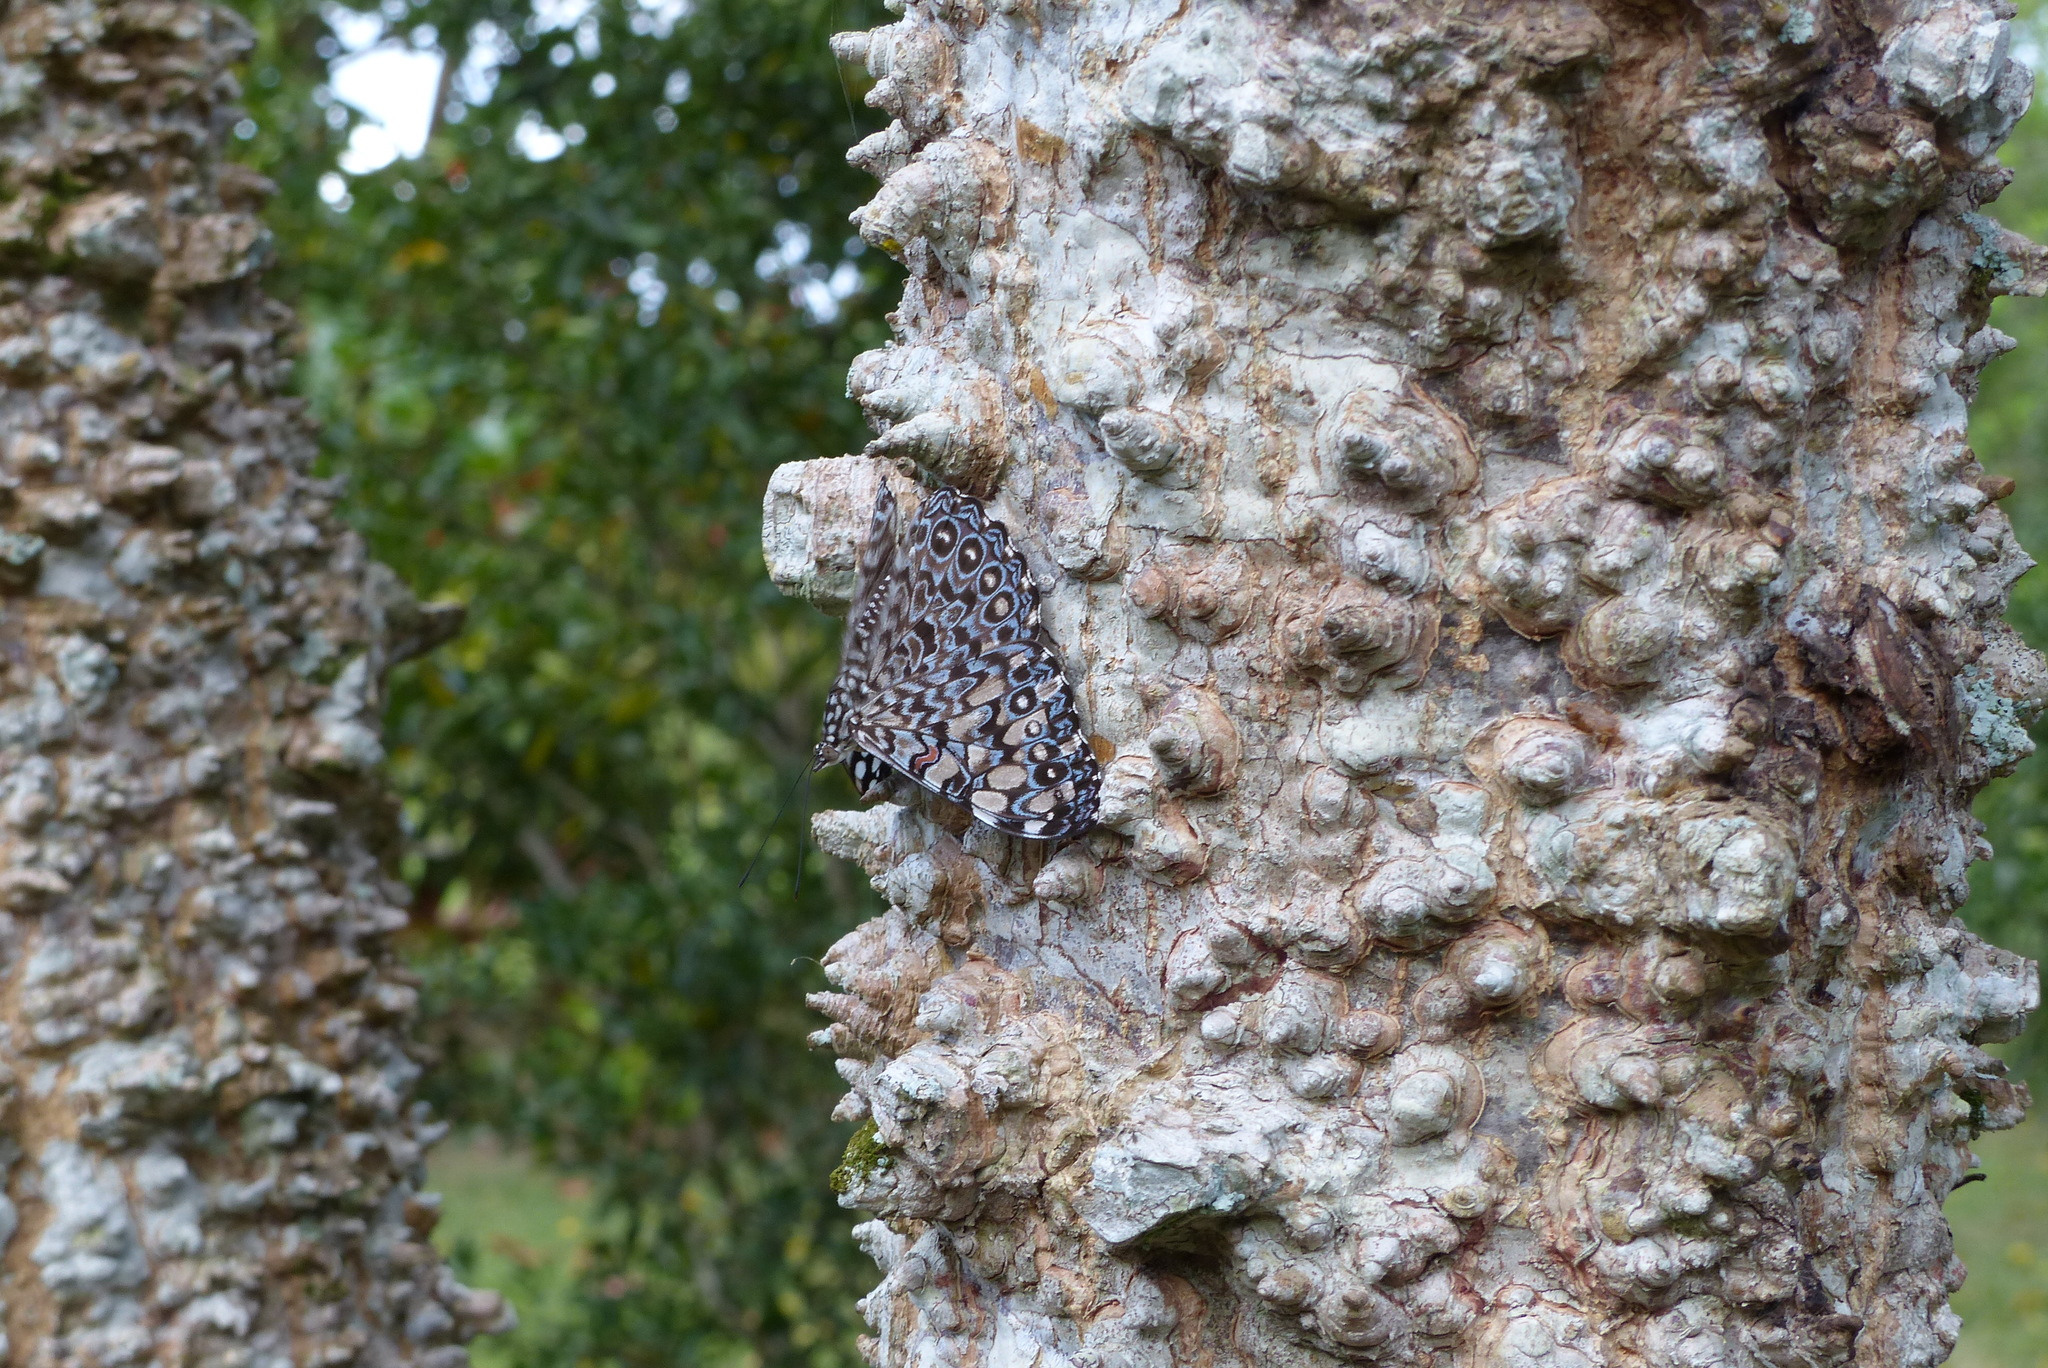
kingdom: Animalia
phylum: Arthropoda
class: Insecta
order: Lepidoptera
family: Nymphalidae
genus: Hamadryas
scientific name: Hamadryas feronia
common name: Variable cracker
